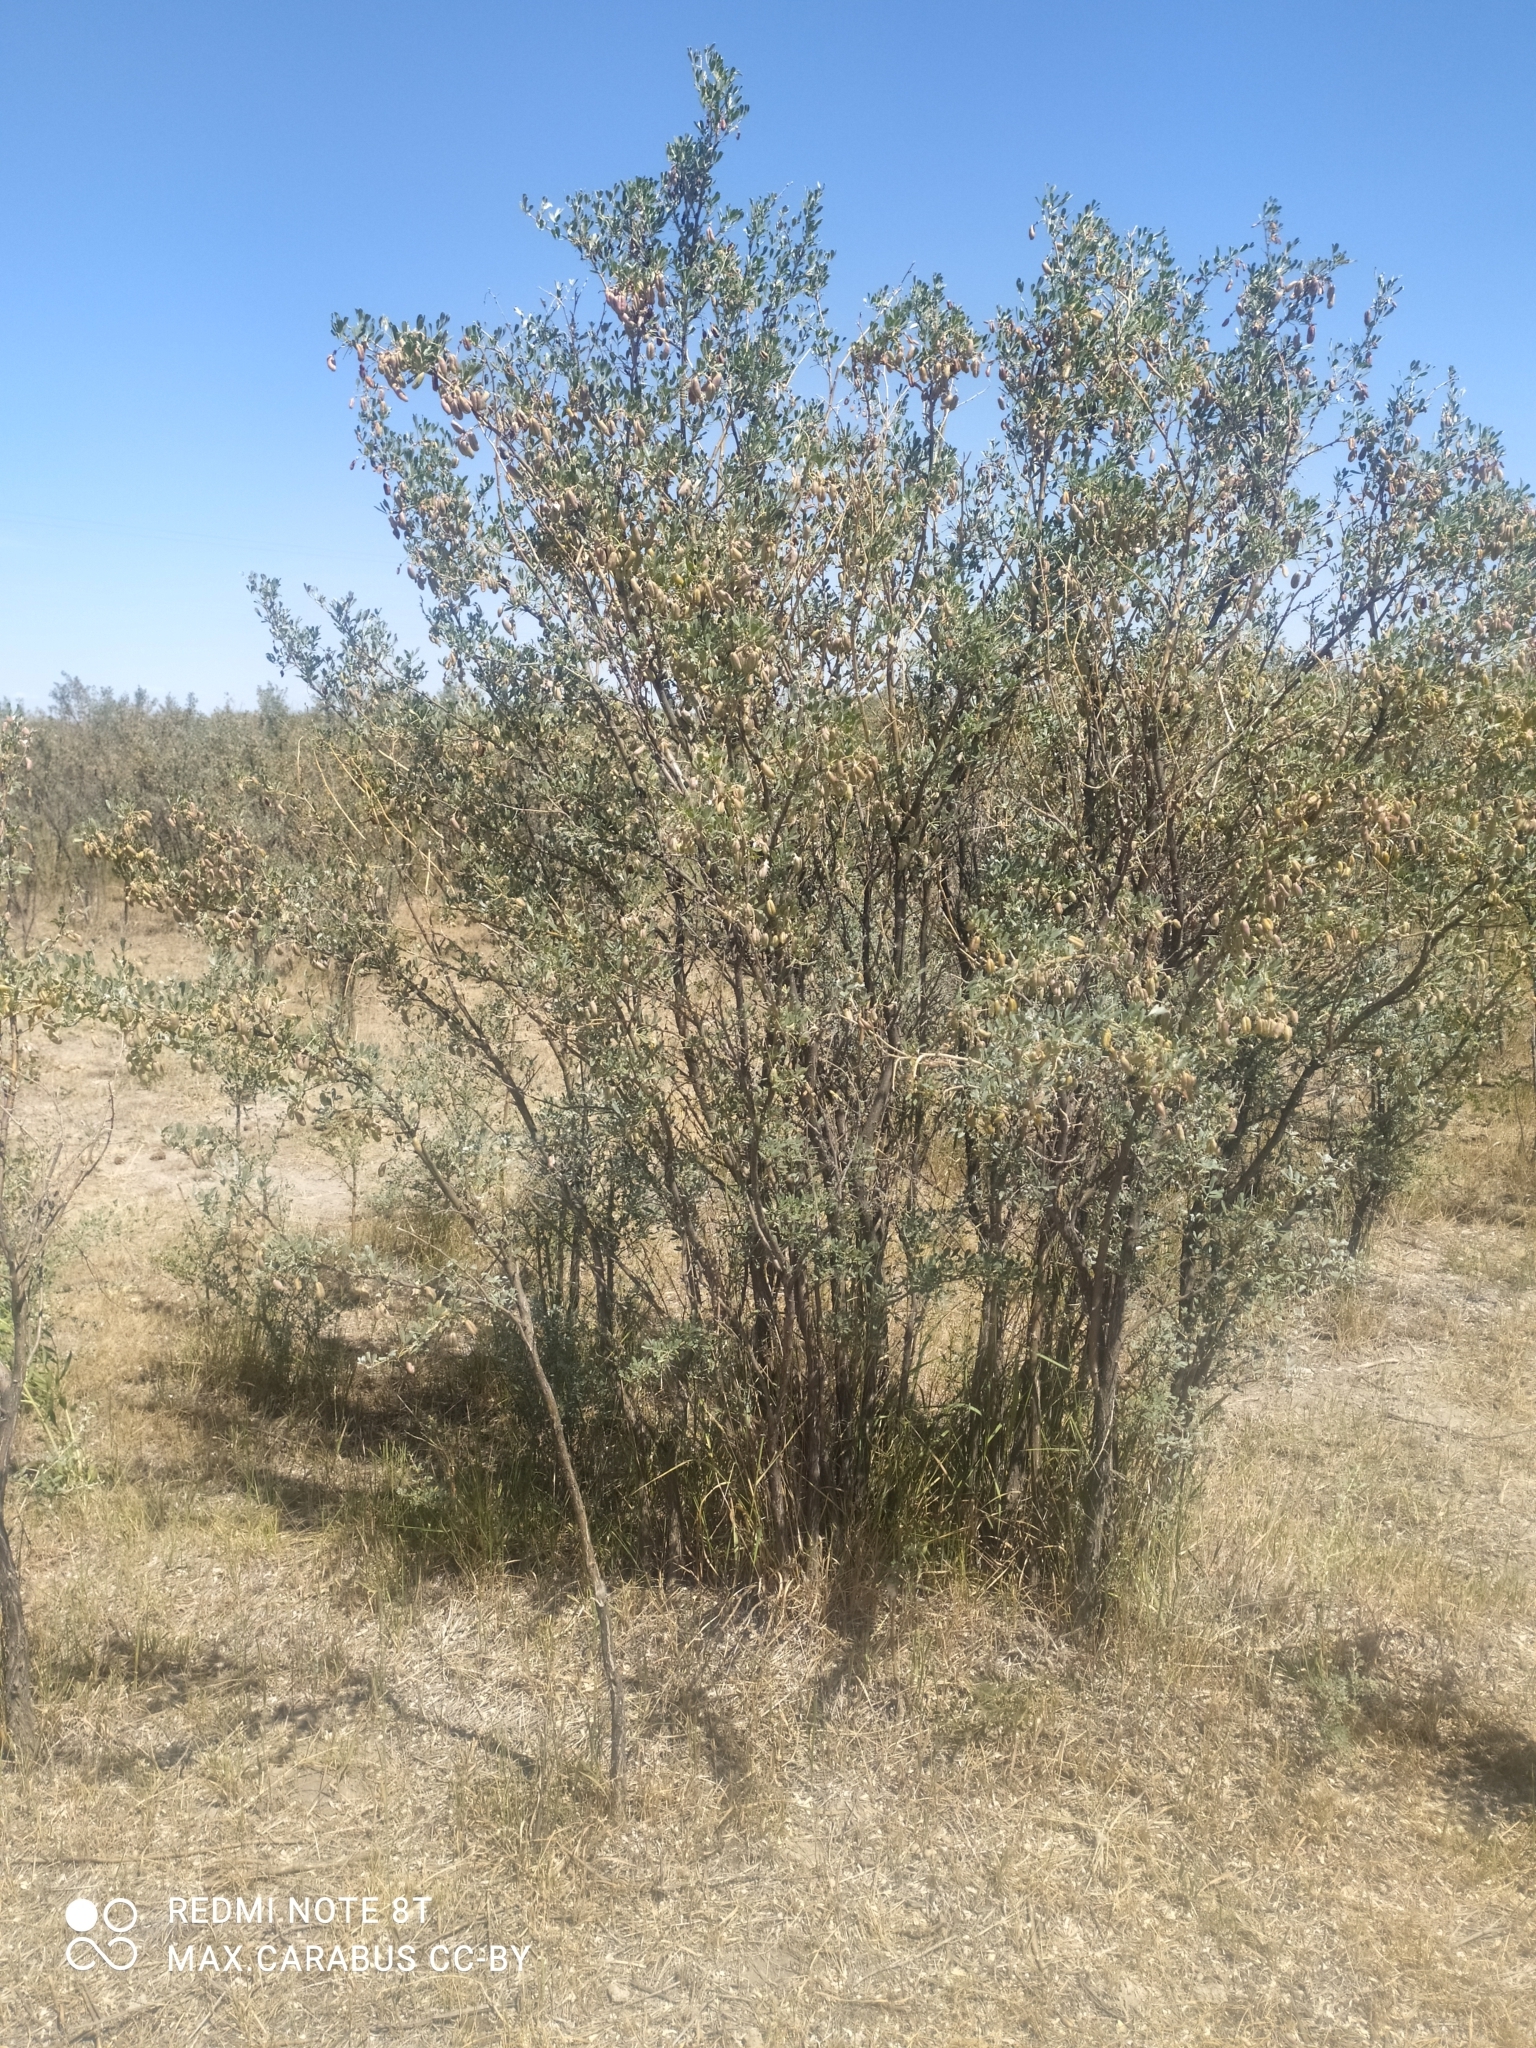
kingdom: Plantae
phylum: Tracheophyta
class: Magnoliopsida
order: Fabales
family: Fabaceae
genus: Caragana
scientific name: Caragana halodendron
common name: Siberian salt-tree
